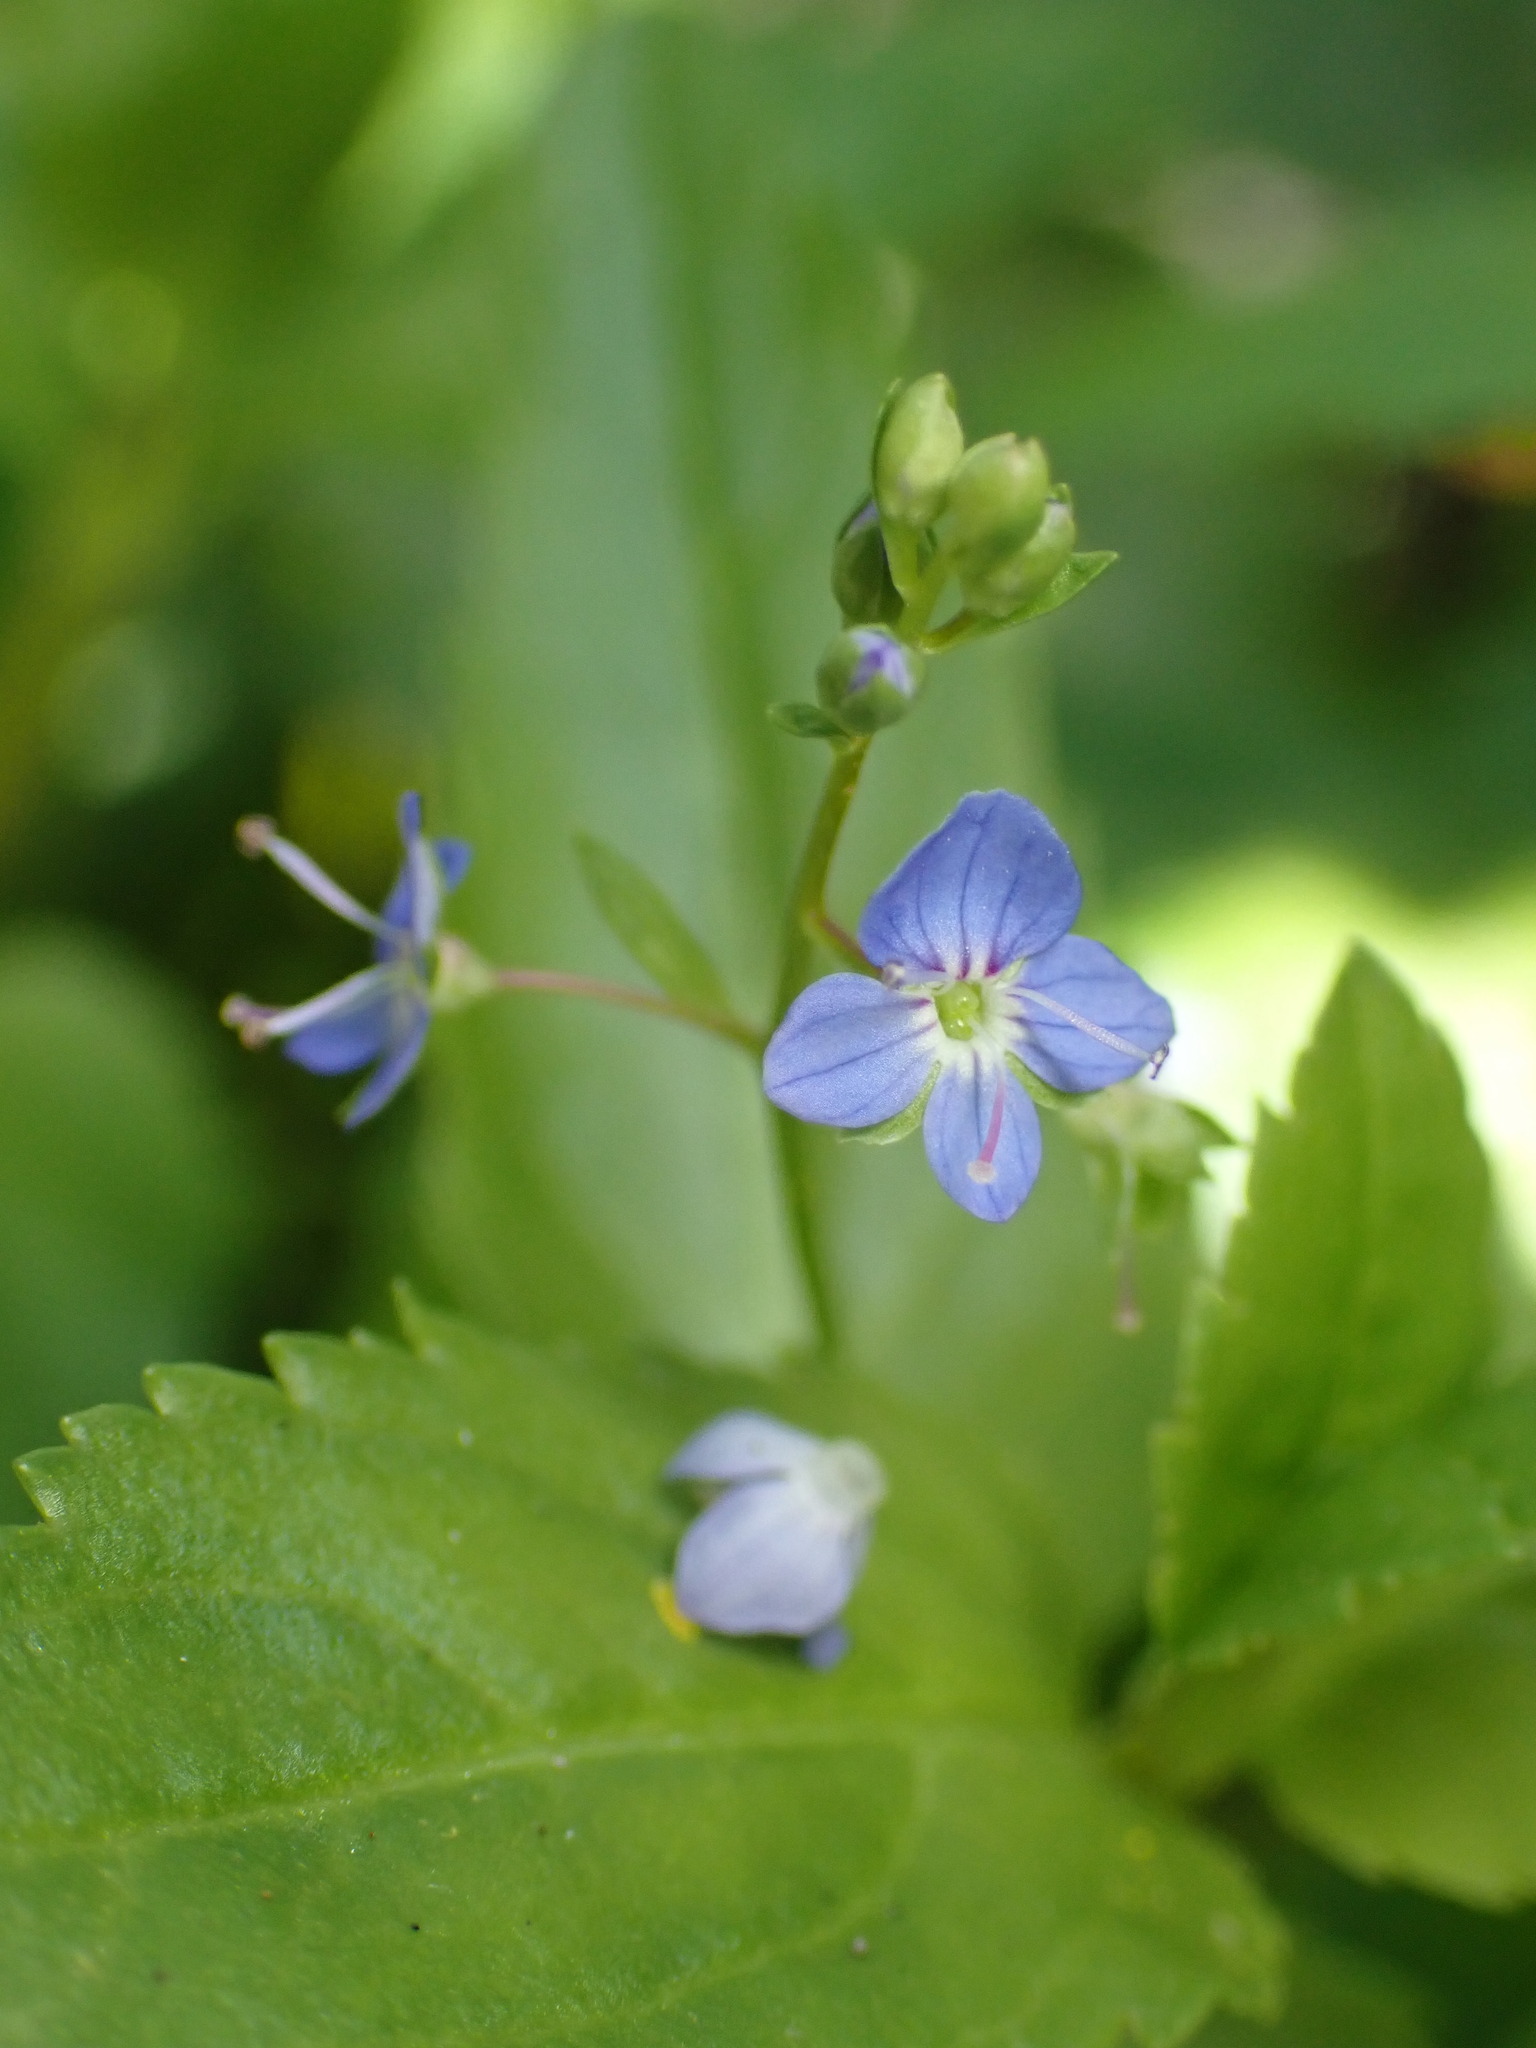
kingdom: Plantae
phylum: Tracheophyta
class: Magnoliopsida
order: Lamiales
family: Plantaginaceae
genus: Veronica
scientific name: Veronica americana
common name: American brooklime
